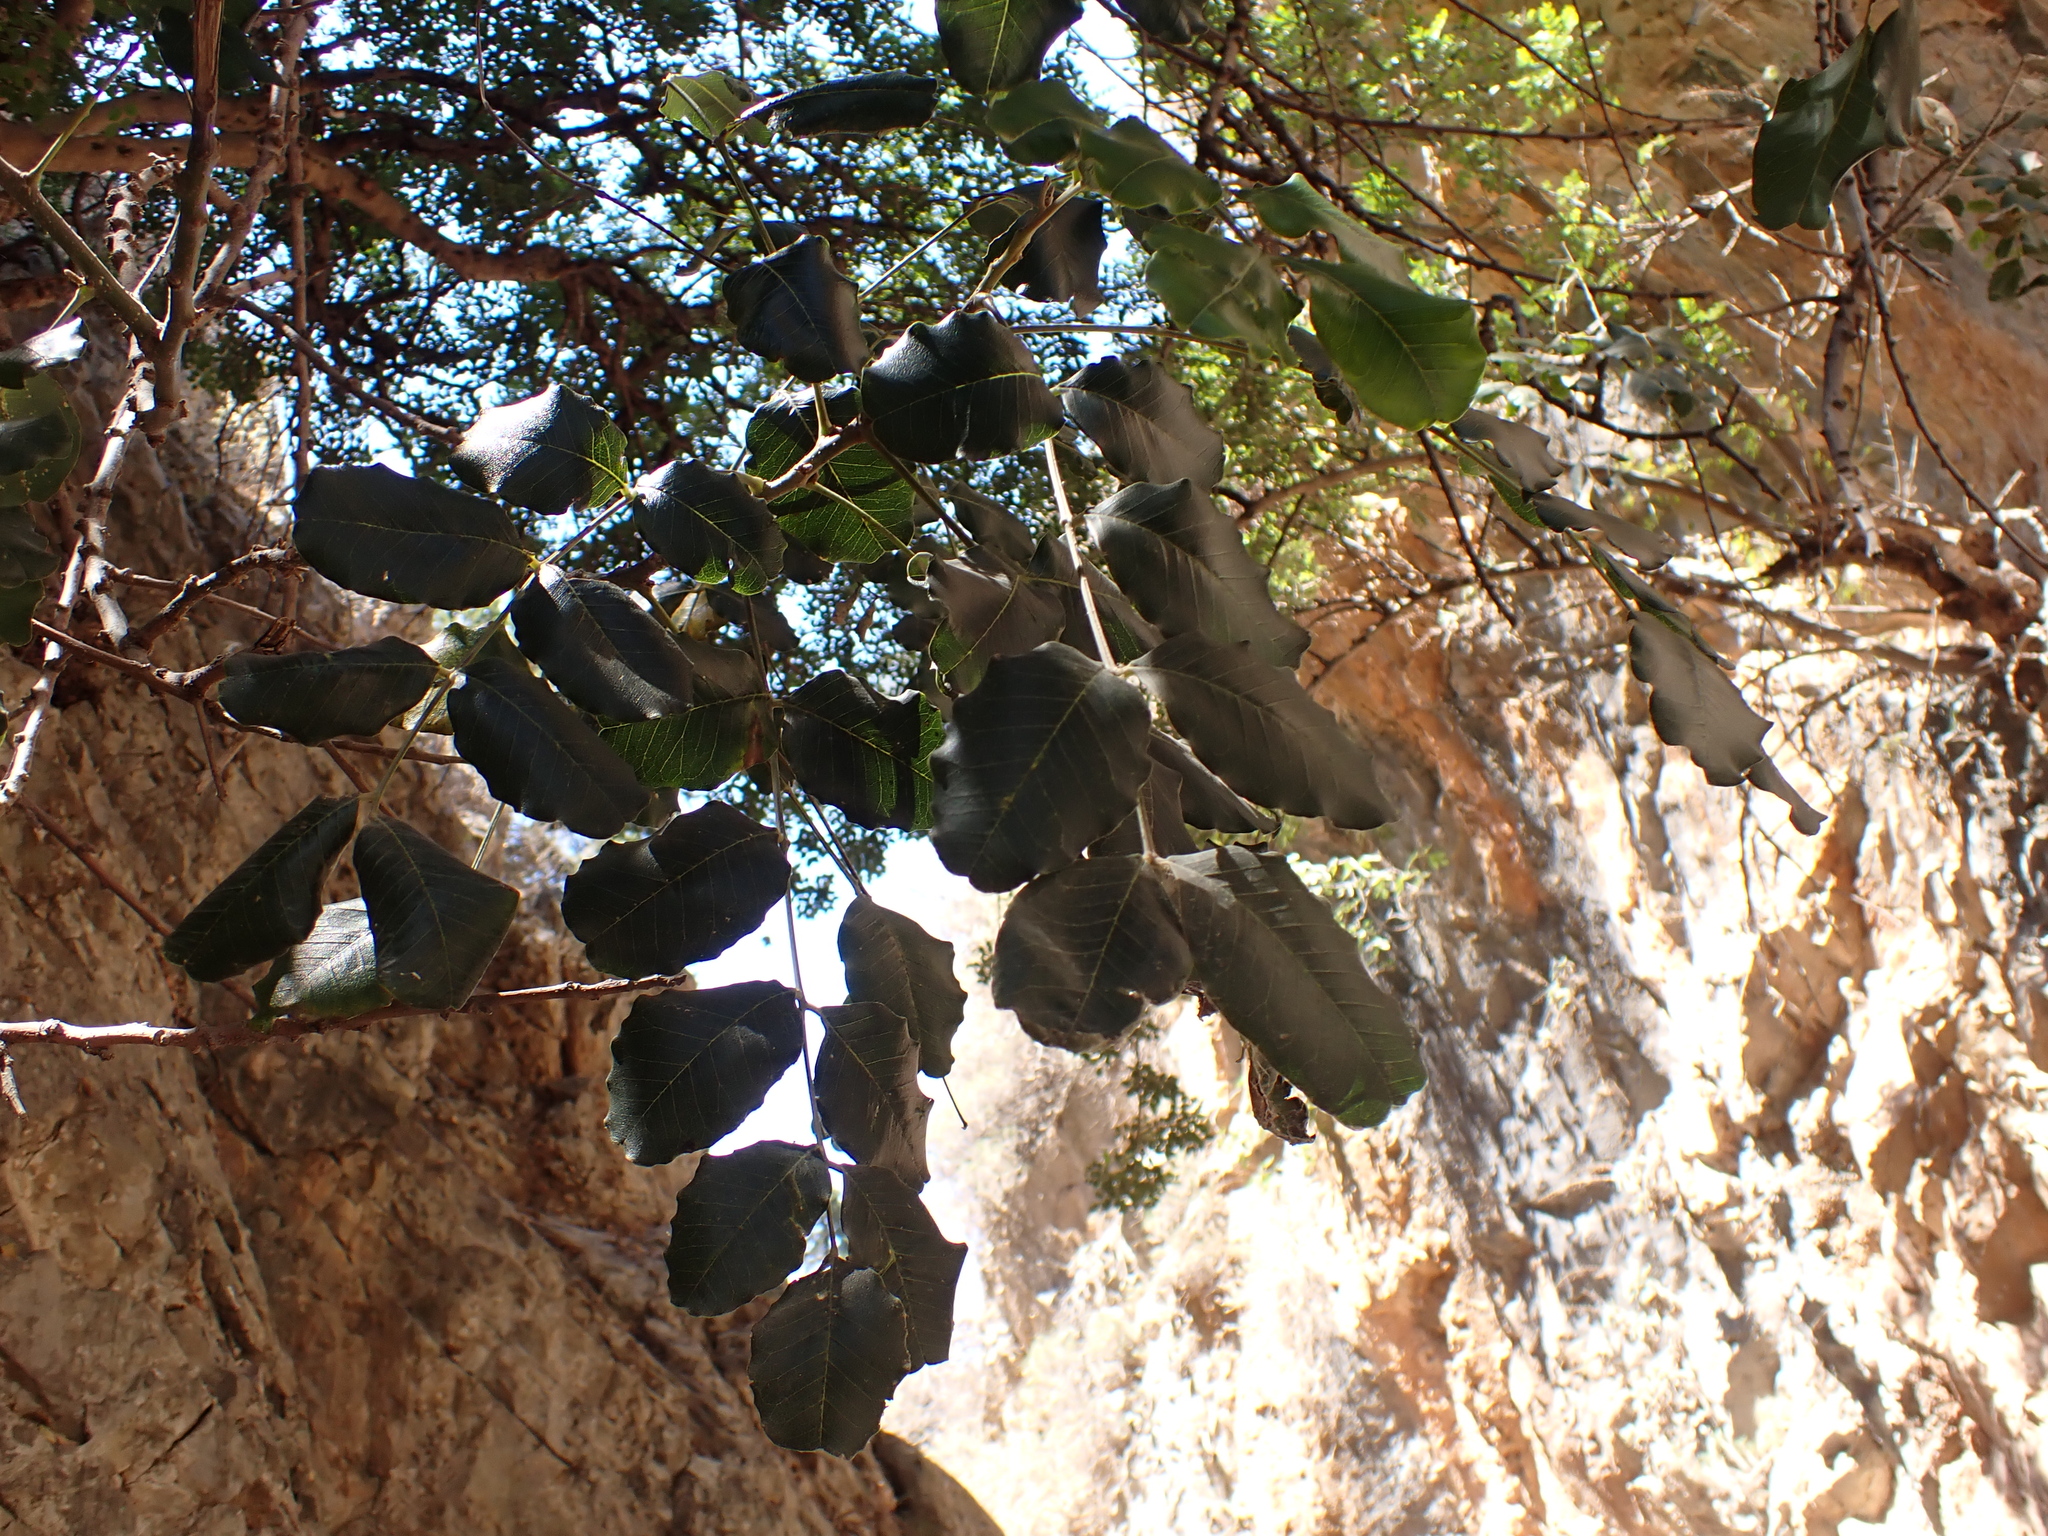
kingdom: Plantae
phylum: Tracheophyta
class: Magnoliopsida
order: Fabales
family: Fabaceae
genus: Ceratonia
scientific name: Ceratonia siliqua
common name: Carob
